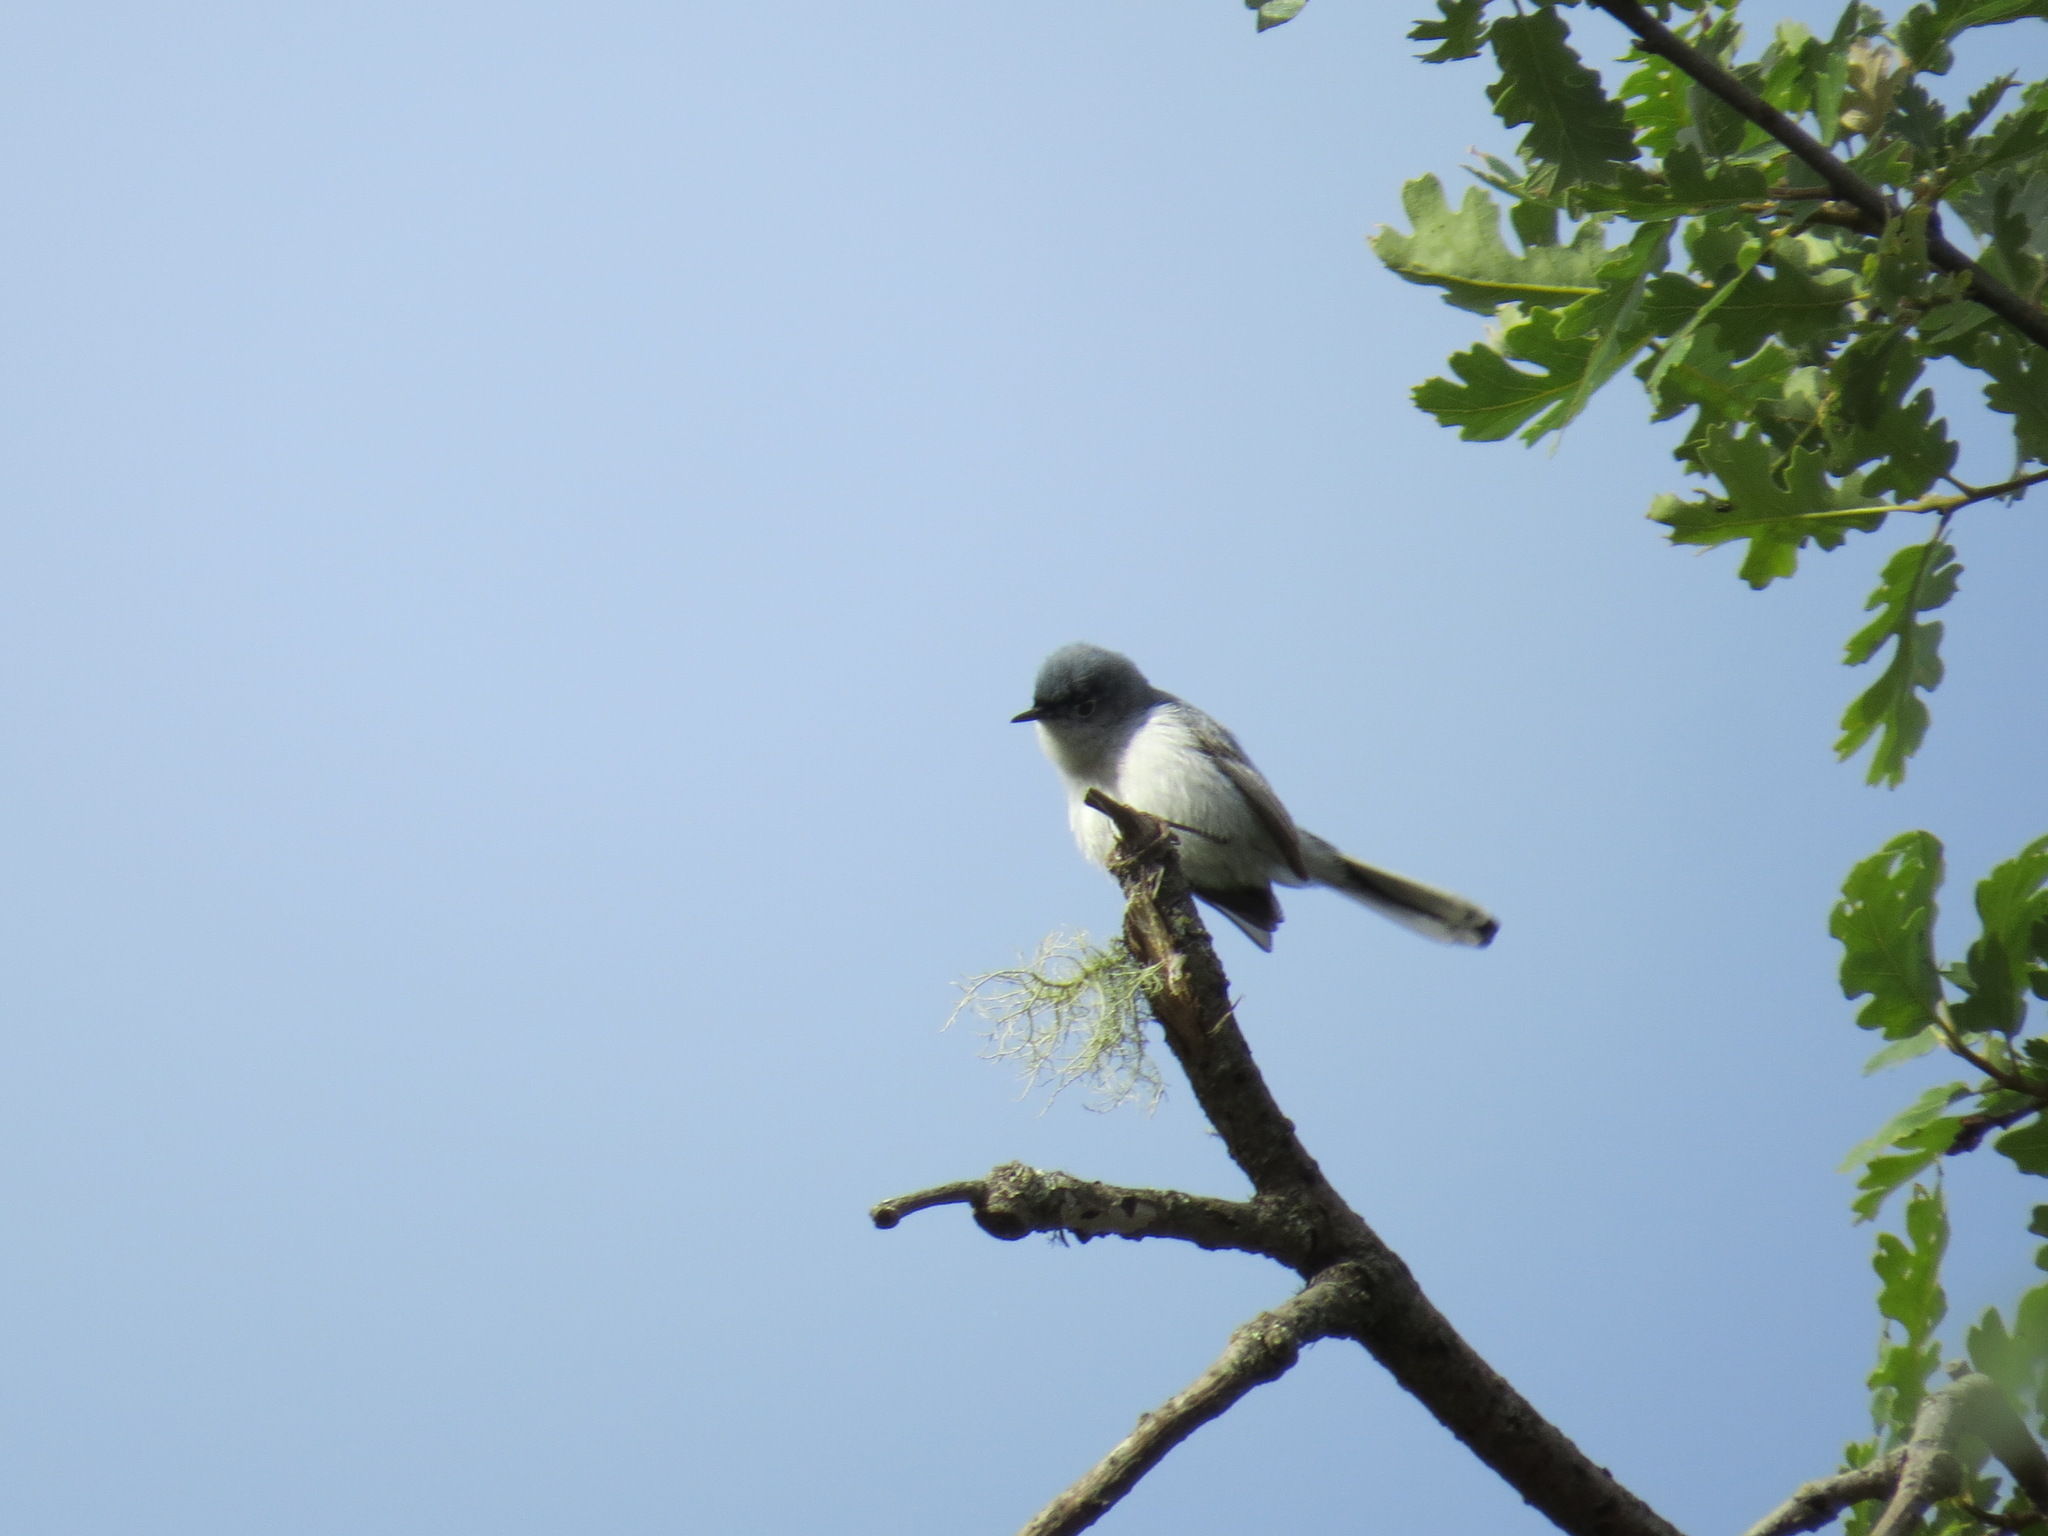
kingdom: Animalia
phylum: Chordata
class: Aves
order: Passeriformes
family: Polioptilidae
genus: Polioptila
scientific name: Polioptila caerulea
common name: Blue-gray gnatcatcher
